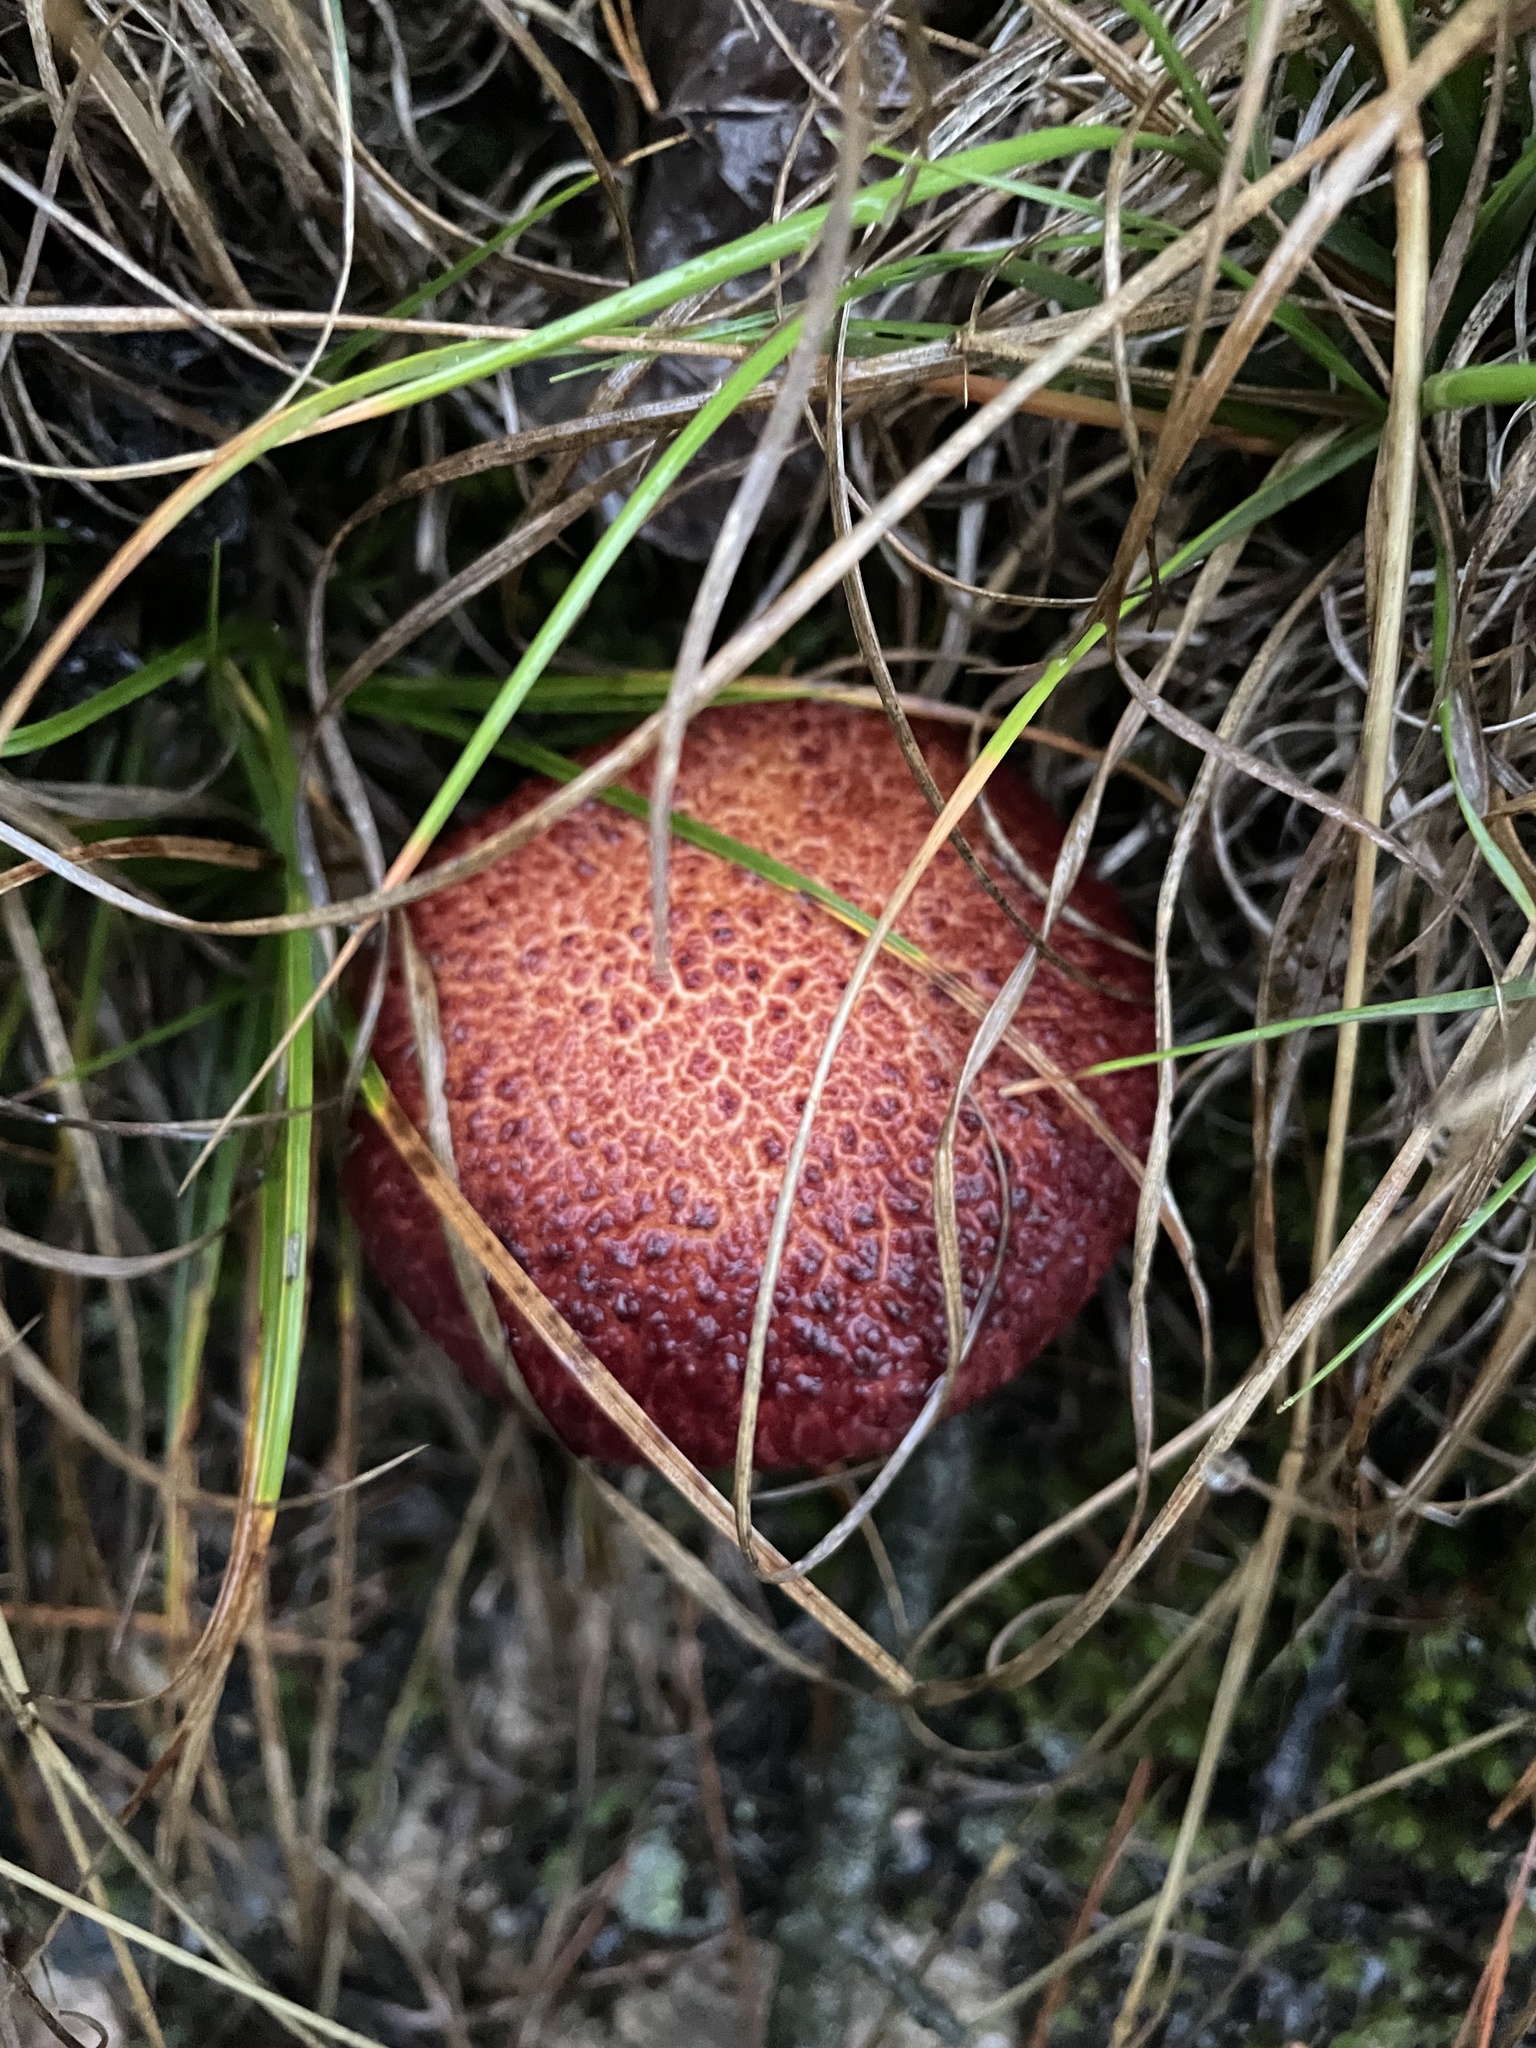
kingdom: Fungi
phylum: Basidiomycota
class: Agaricomycetes
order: Boletales
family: Suillaceae
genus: Suillus
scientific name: Suillus spraguei
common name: Painted suillus
